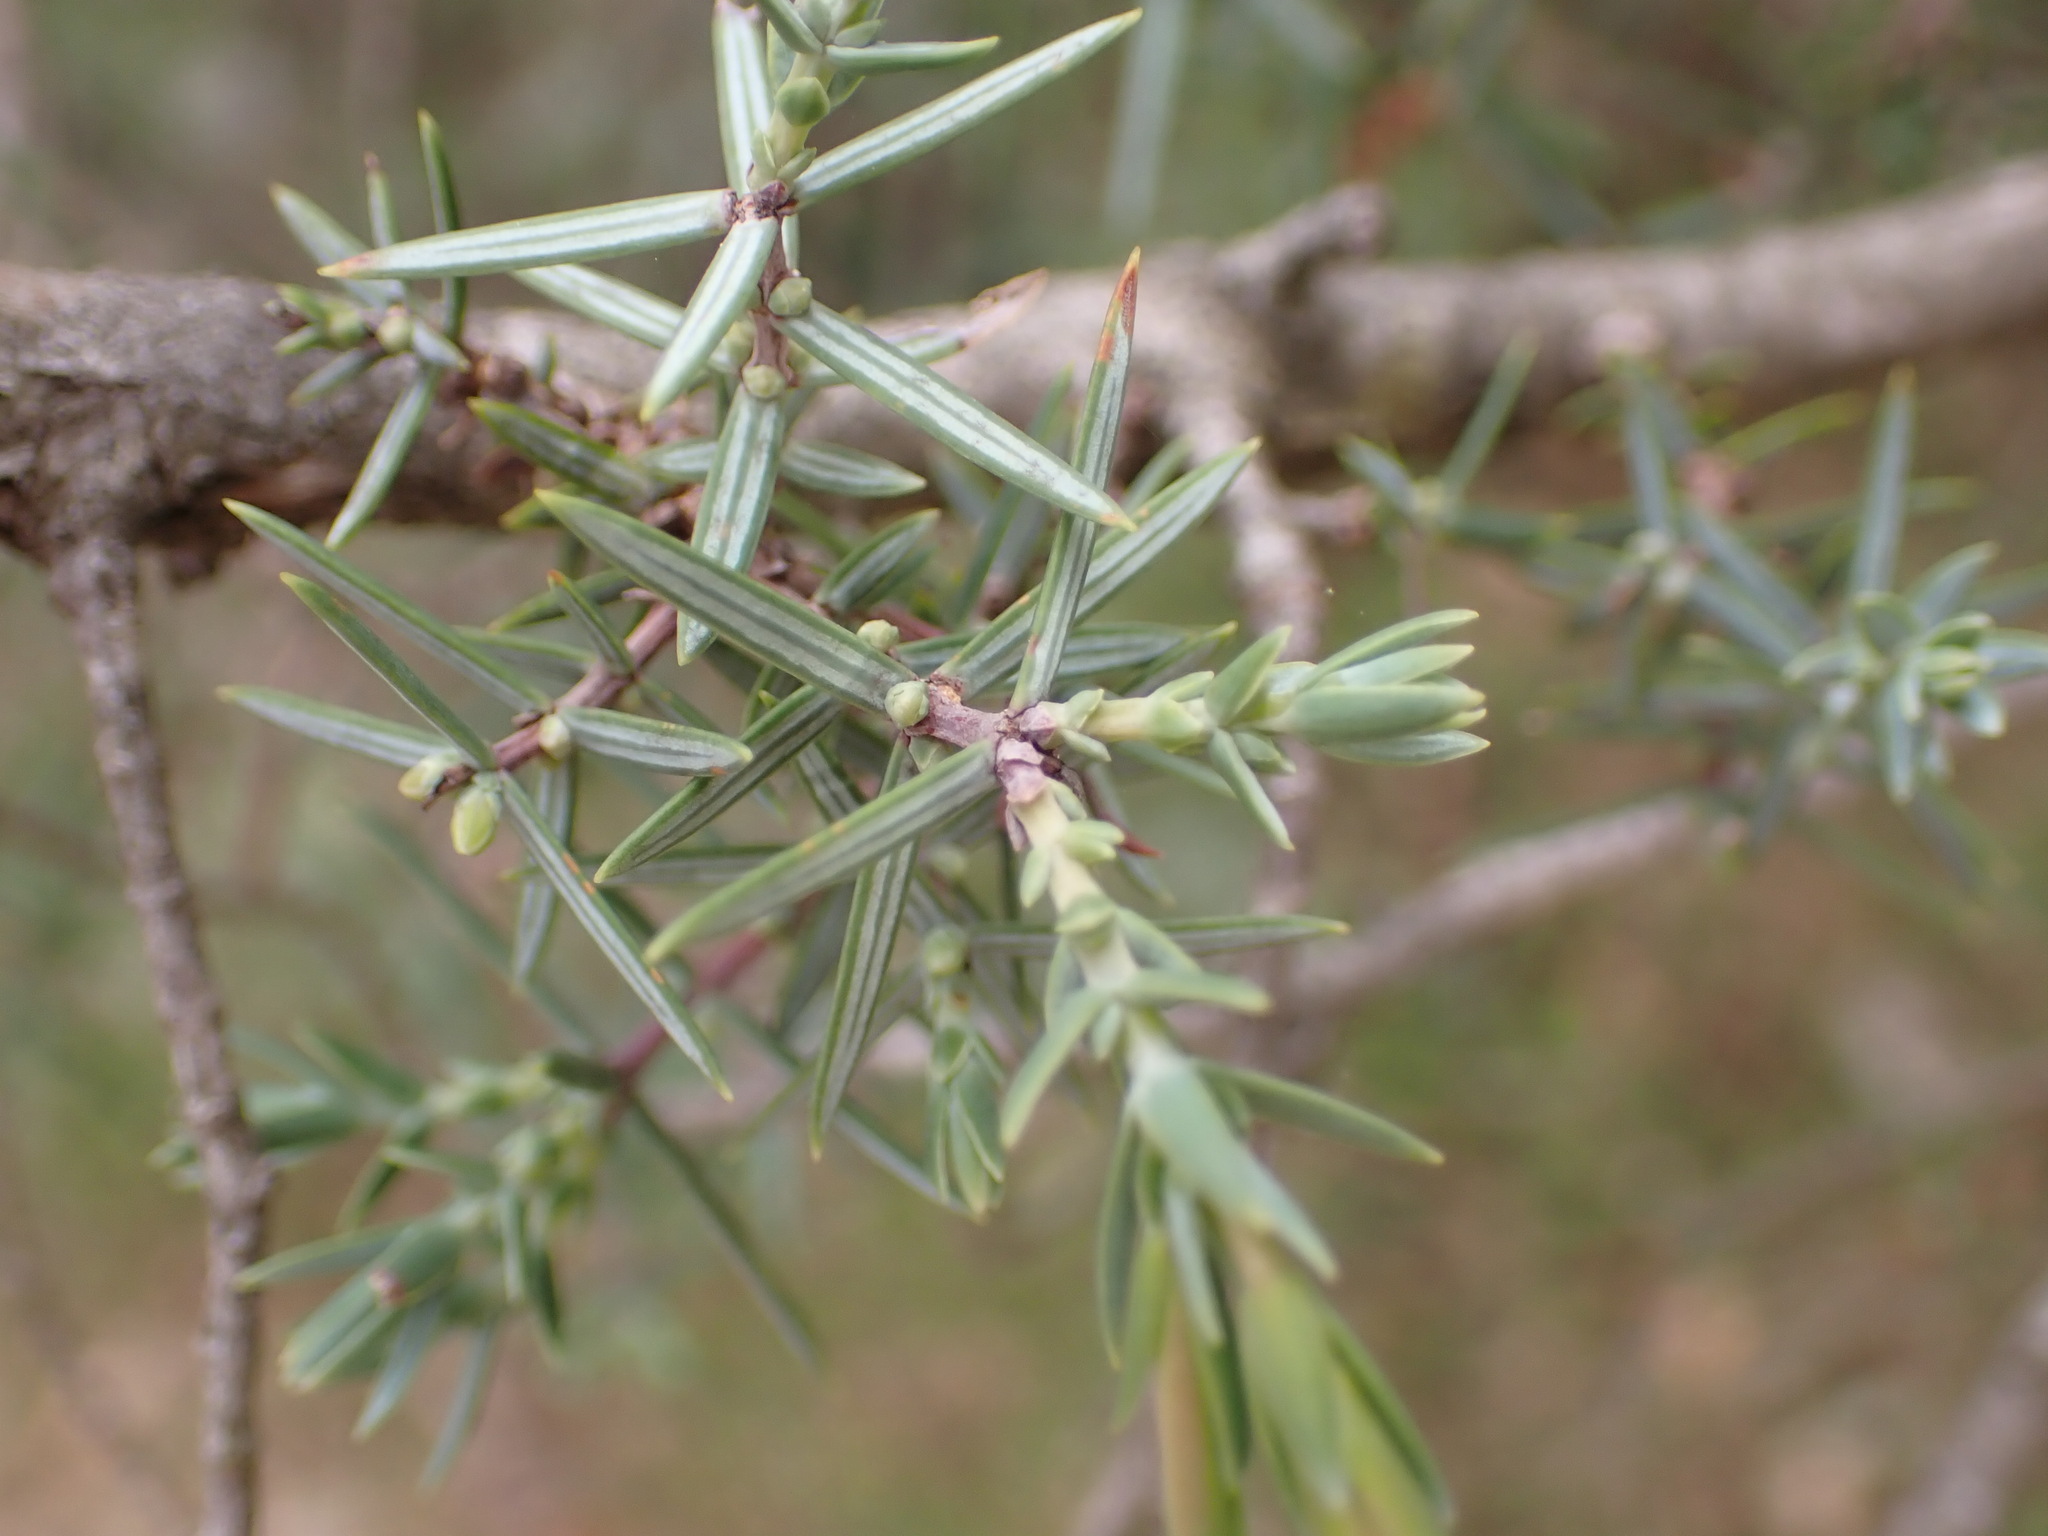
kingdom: Plantae
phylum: Tracheophyta
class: Pinopsida
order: Pinales
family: Cupressaceae
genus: Juniperus
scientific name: Juniperus oxycedrus
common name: Prickly juniper
